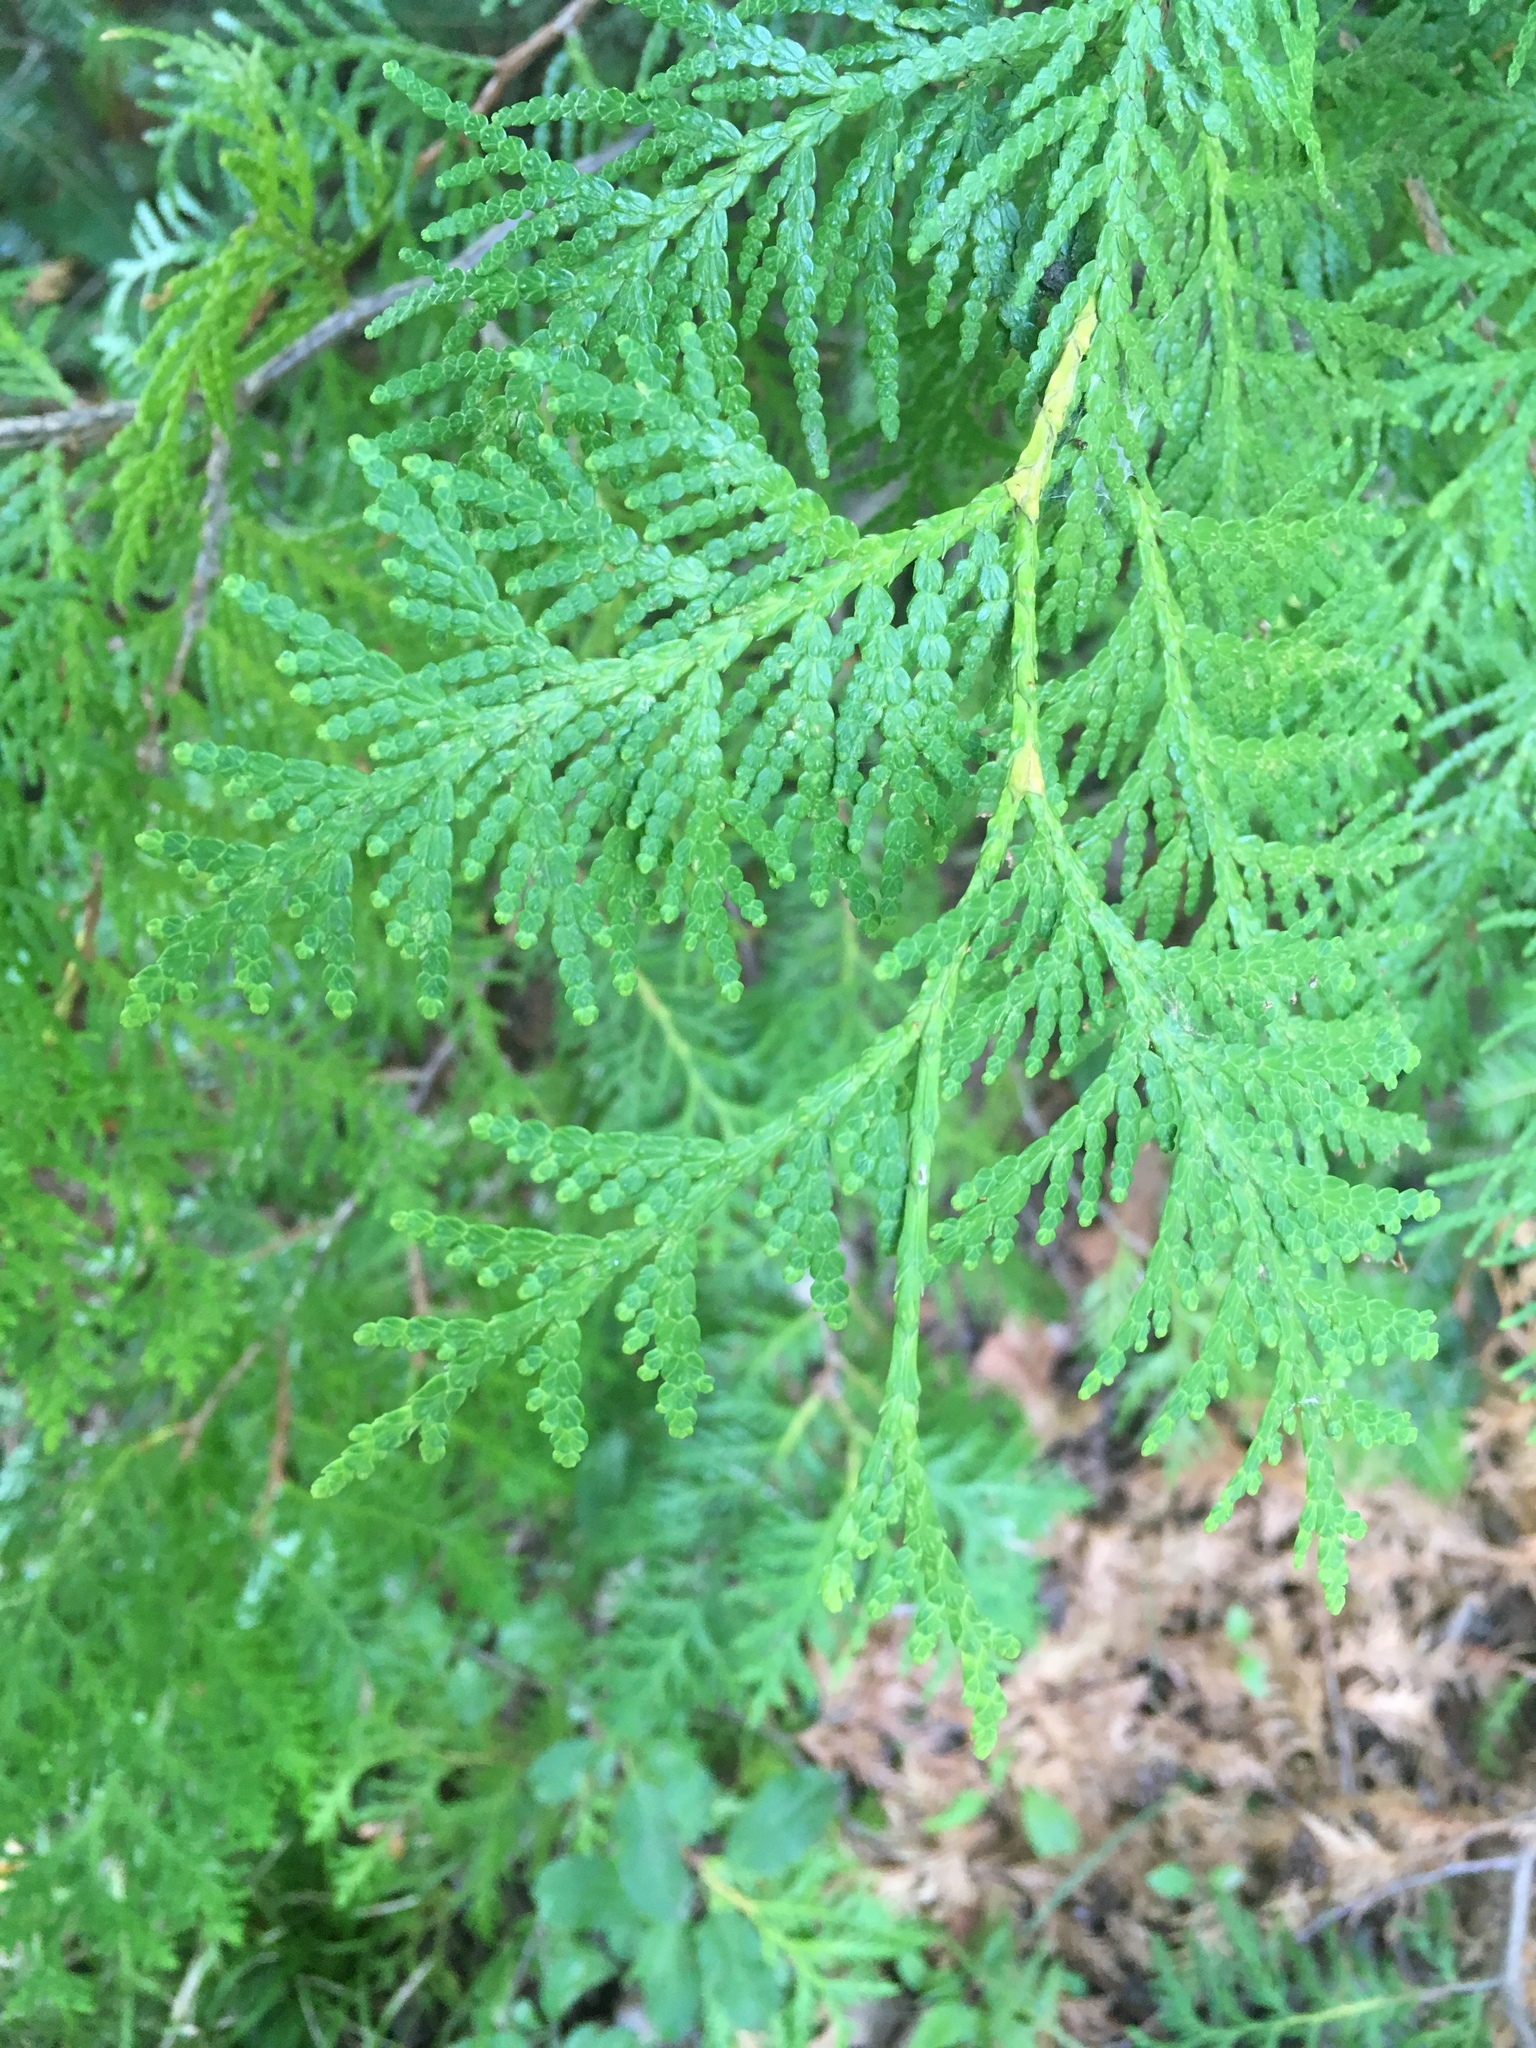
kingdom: Plantae
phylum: Tracheophyta
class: Pinopsida
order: Pinales
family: Cupressaceae
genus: Thuja
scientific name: Thuja occidentalis
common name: Northern white-cedar
